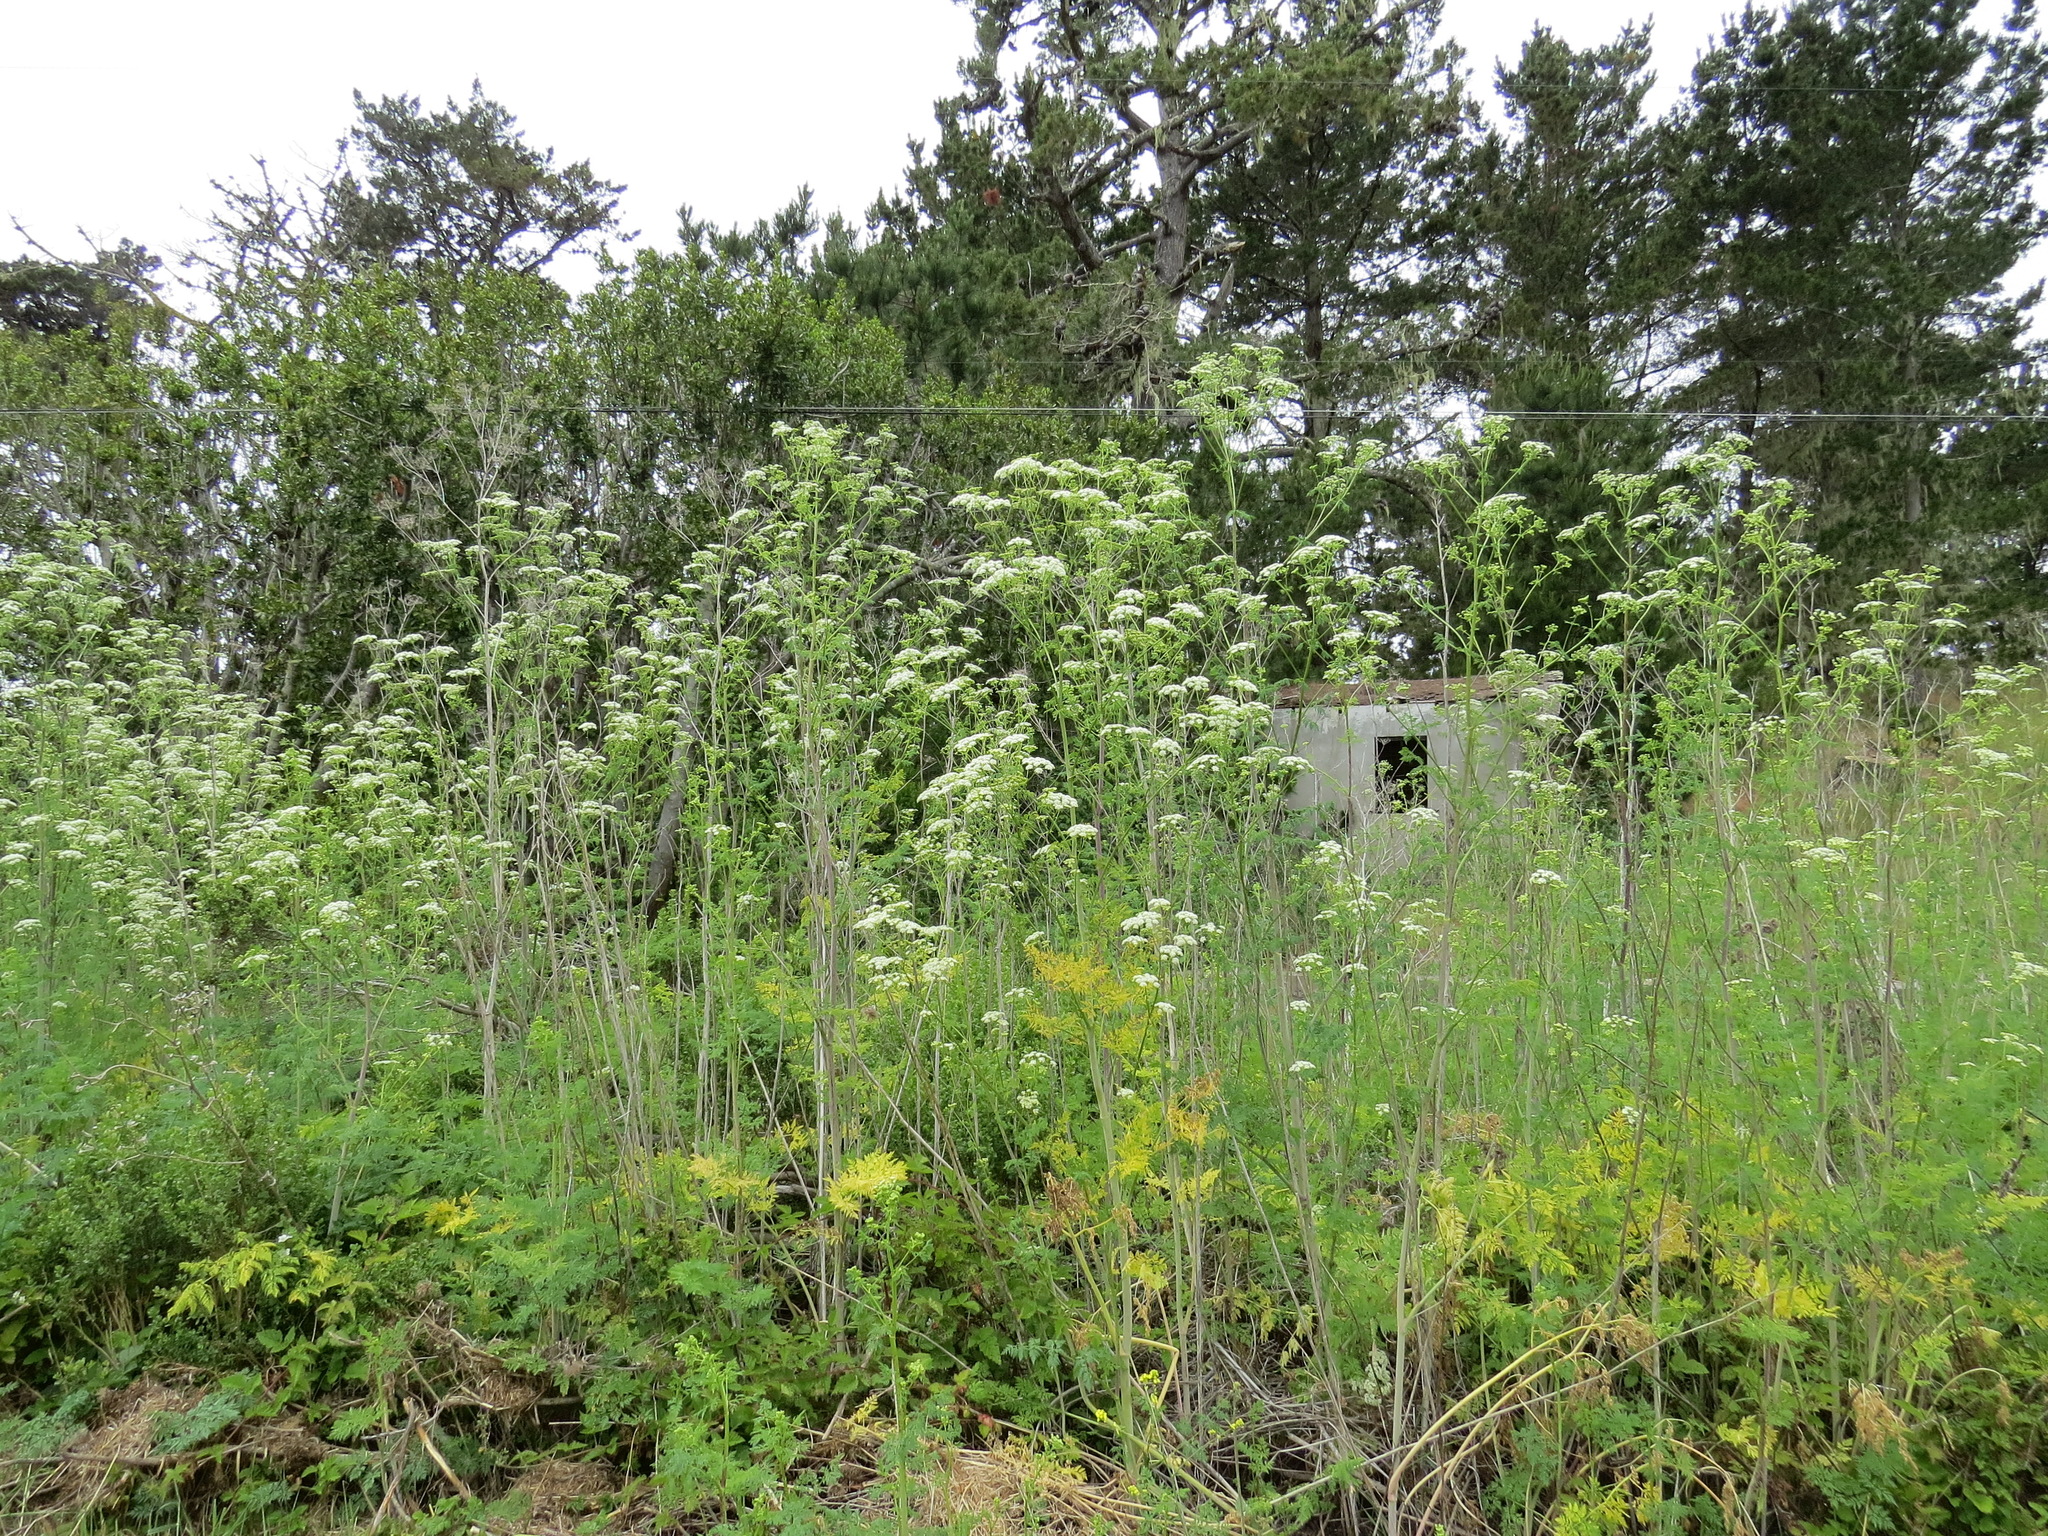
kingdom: Plantae
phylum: Tracheophyta
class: Magnoliopsida
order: Apiales
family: Apiaceae
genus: Conium
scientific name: Conium maculatum
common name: Hemlock
